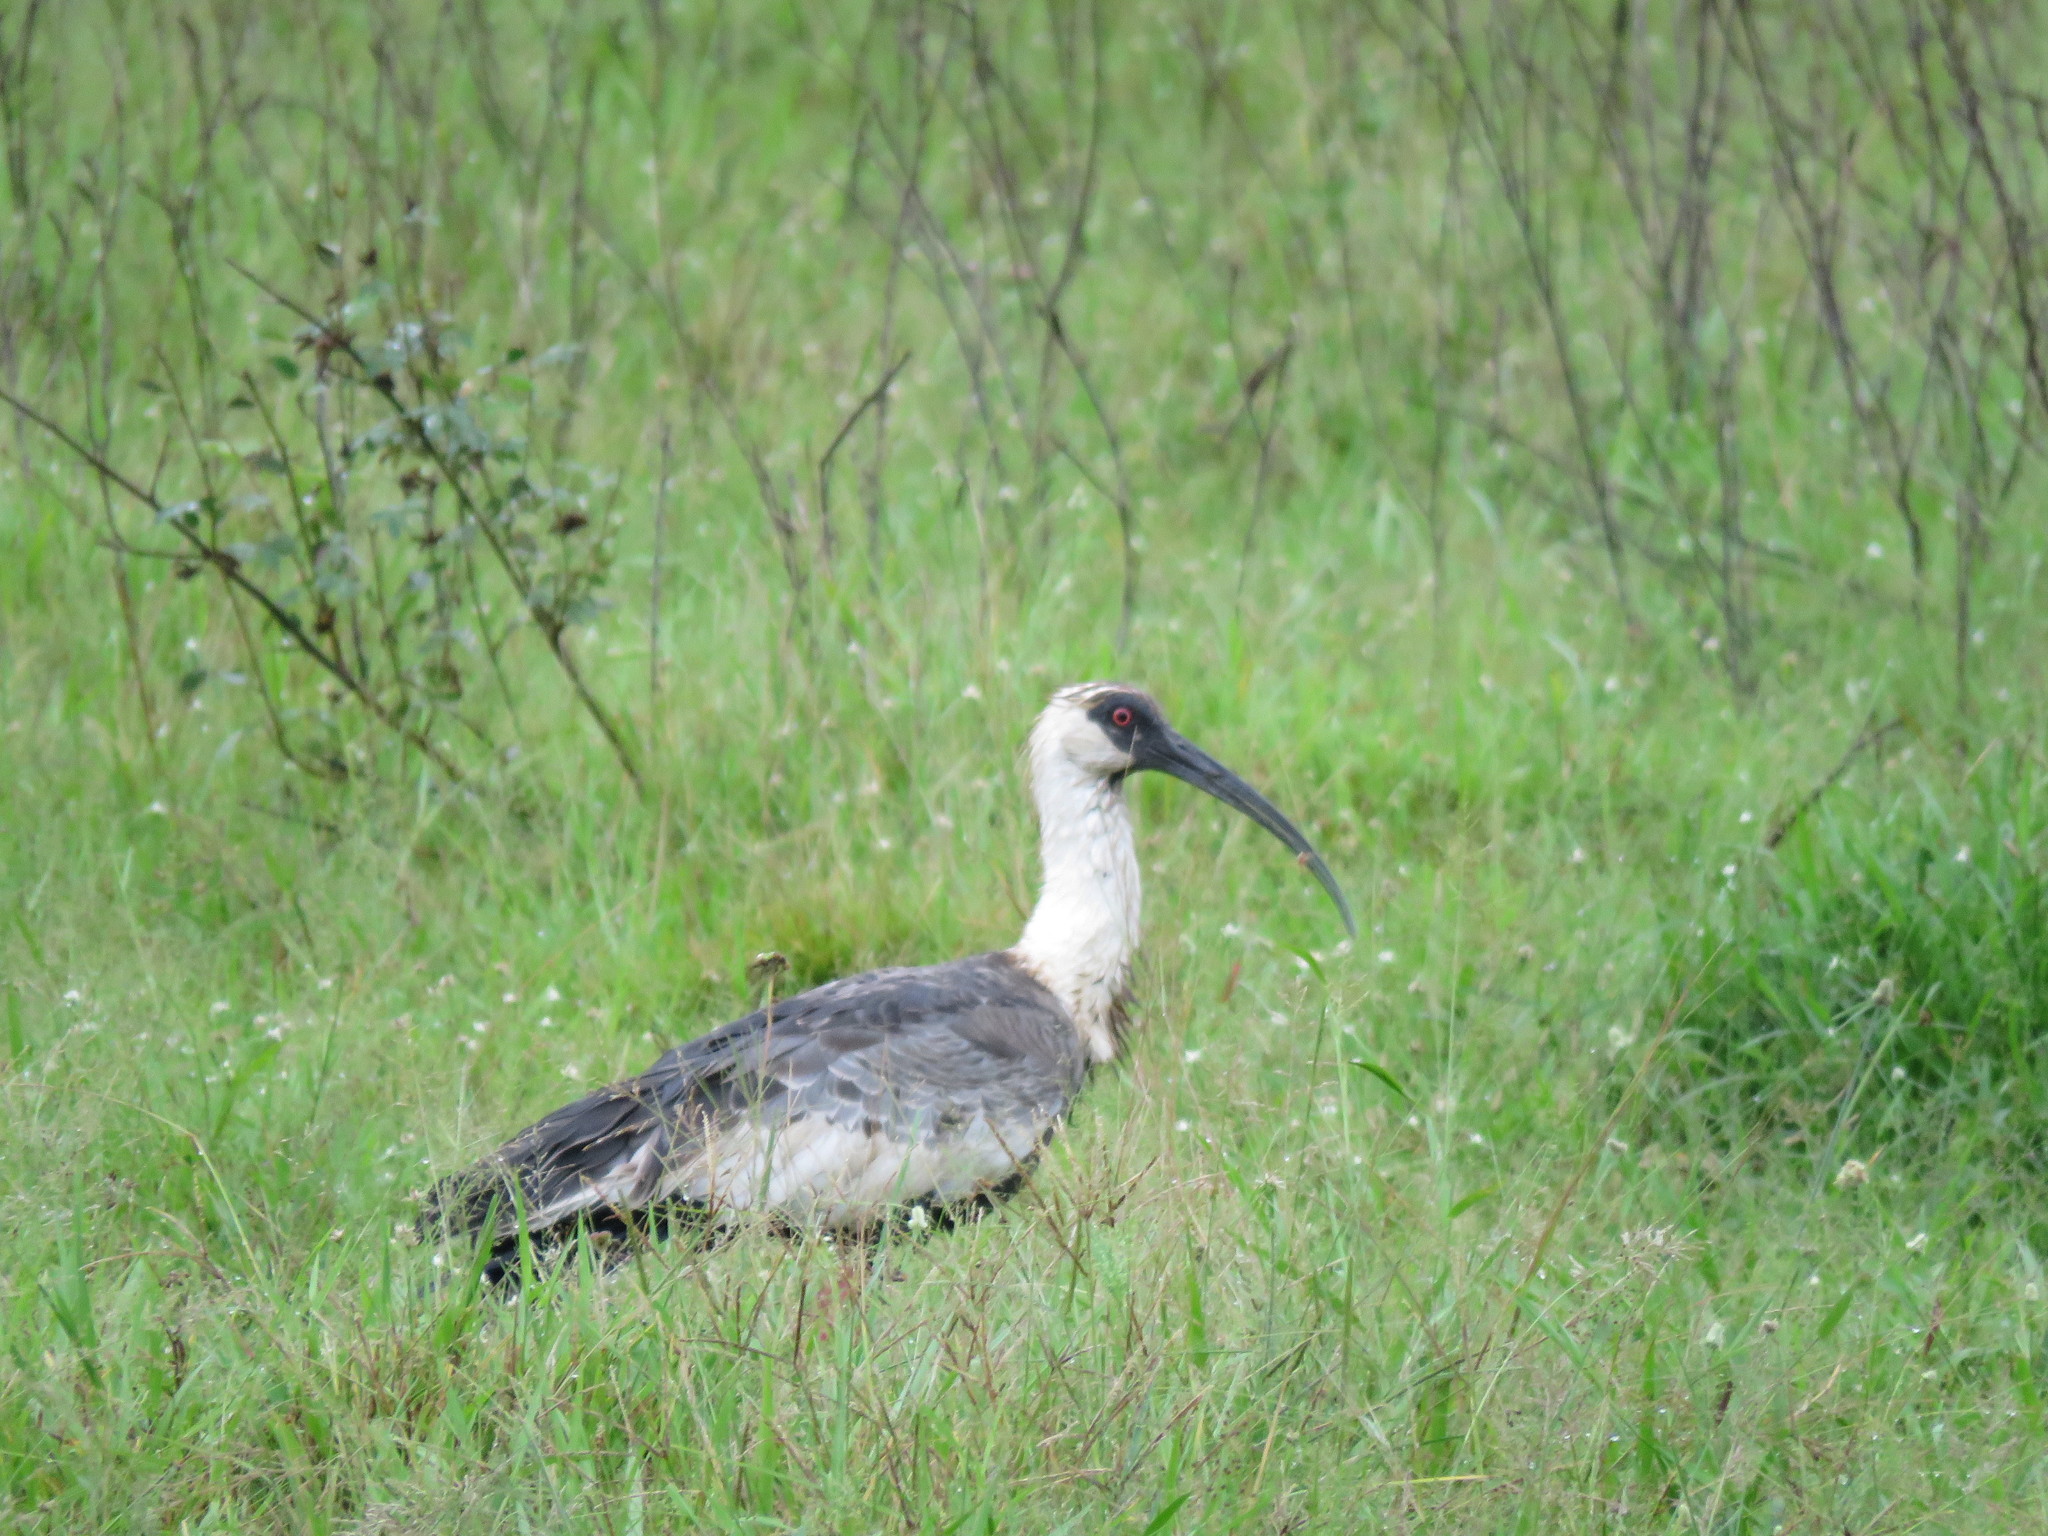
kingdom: Animalia
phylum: Chordata
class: Aves
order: Pelecaniformes
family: Threskiornithidae
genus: Theristicus
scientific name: Theristicus caudatus
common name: Buff-necked ibis
